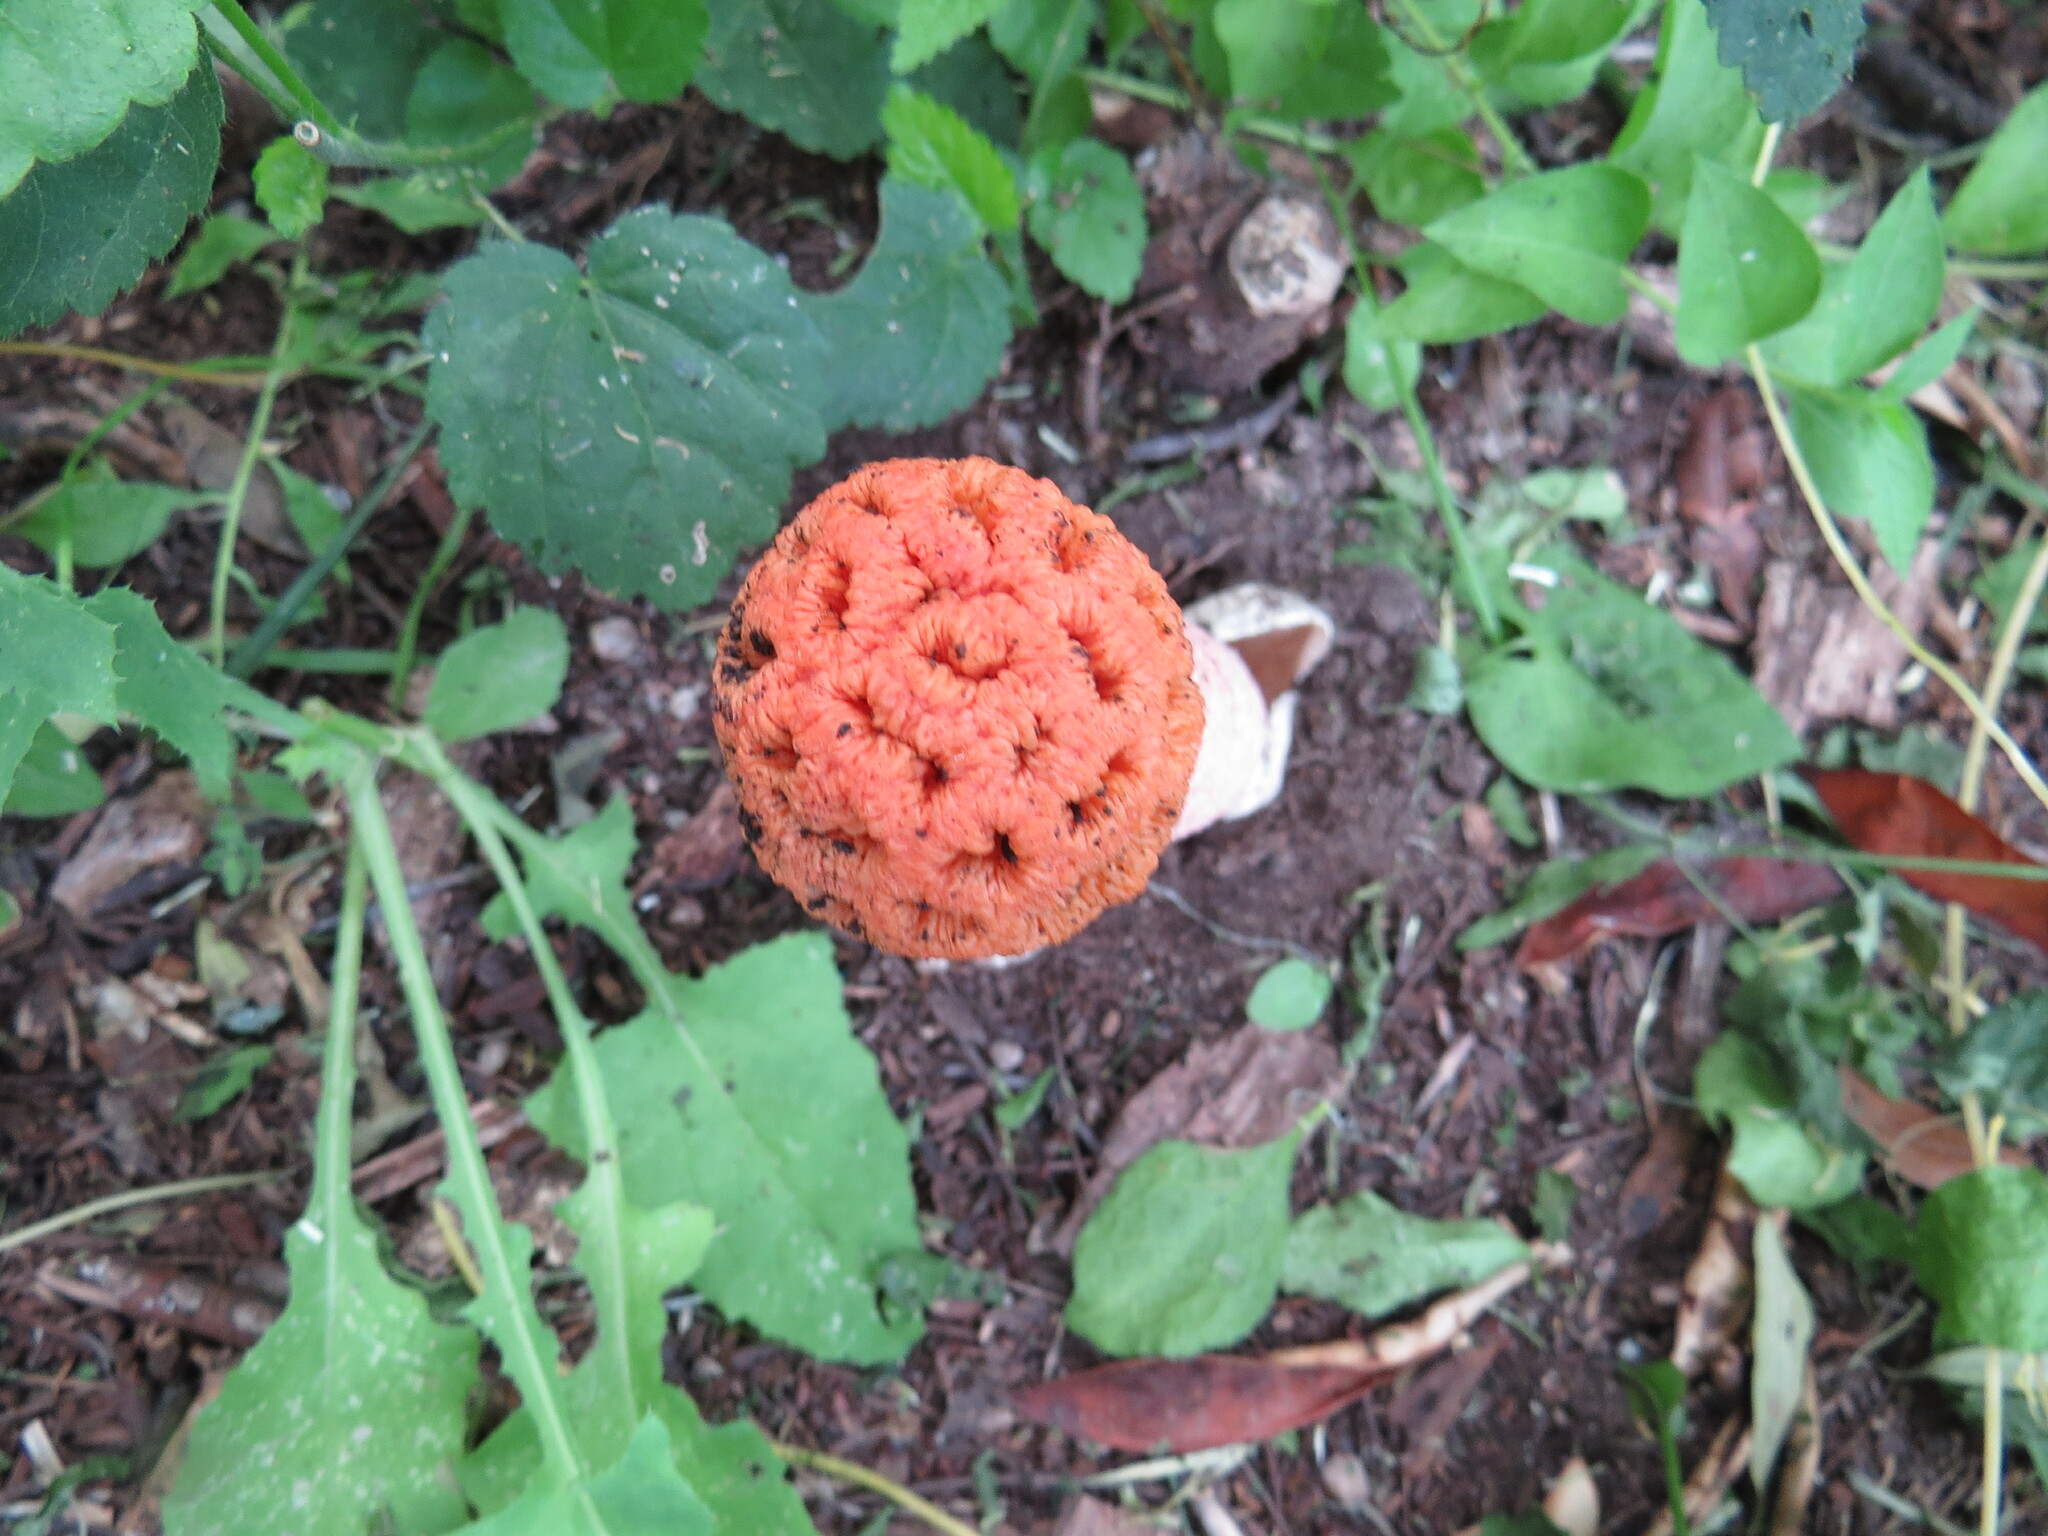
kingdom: Fungi
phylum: Basidiomycota
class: Agaricomycetes
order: Phallales
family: Phallaceae
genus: Lysurus
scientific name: Lysurus periphragmoides
